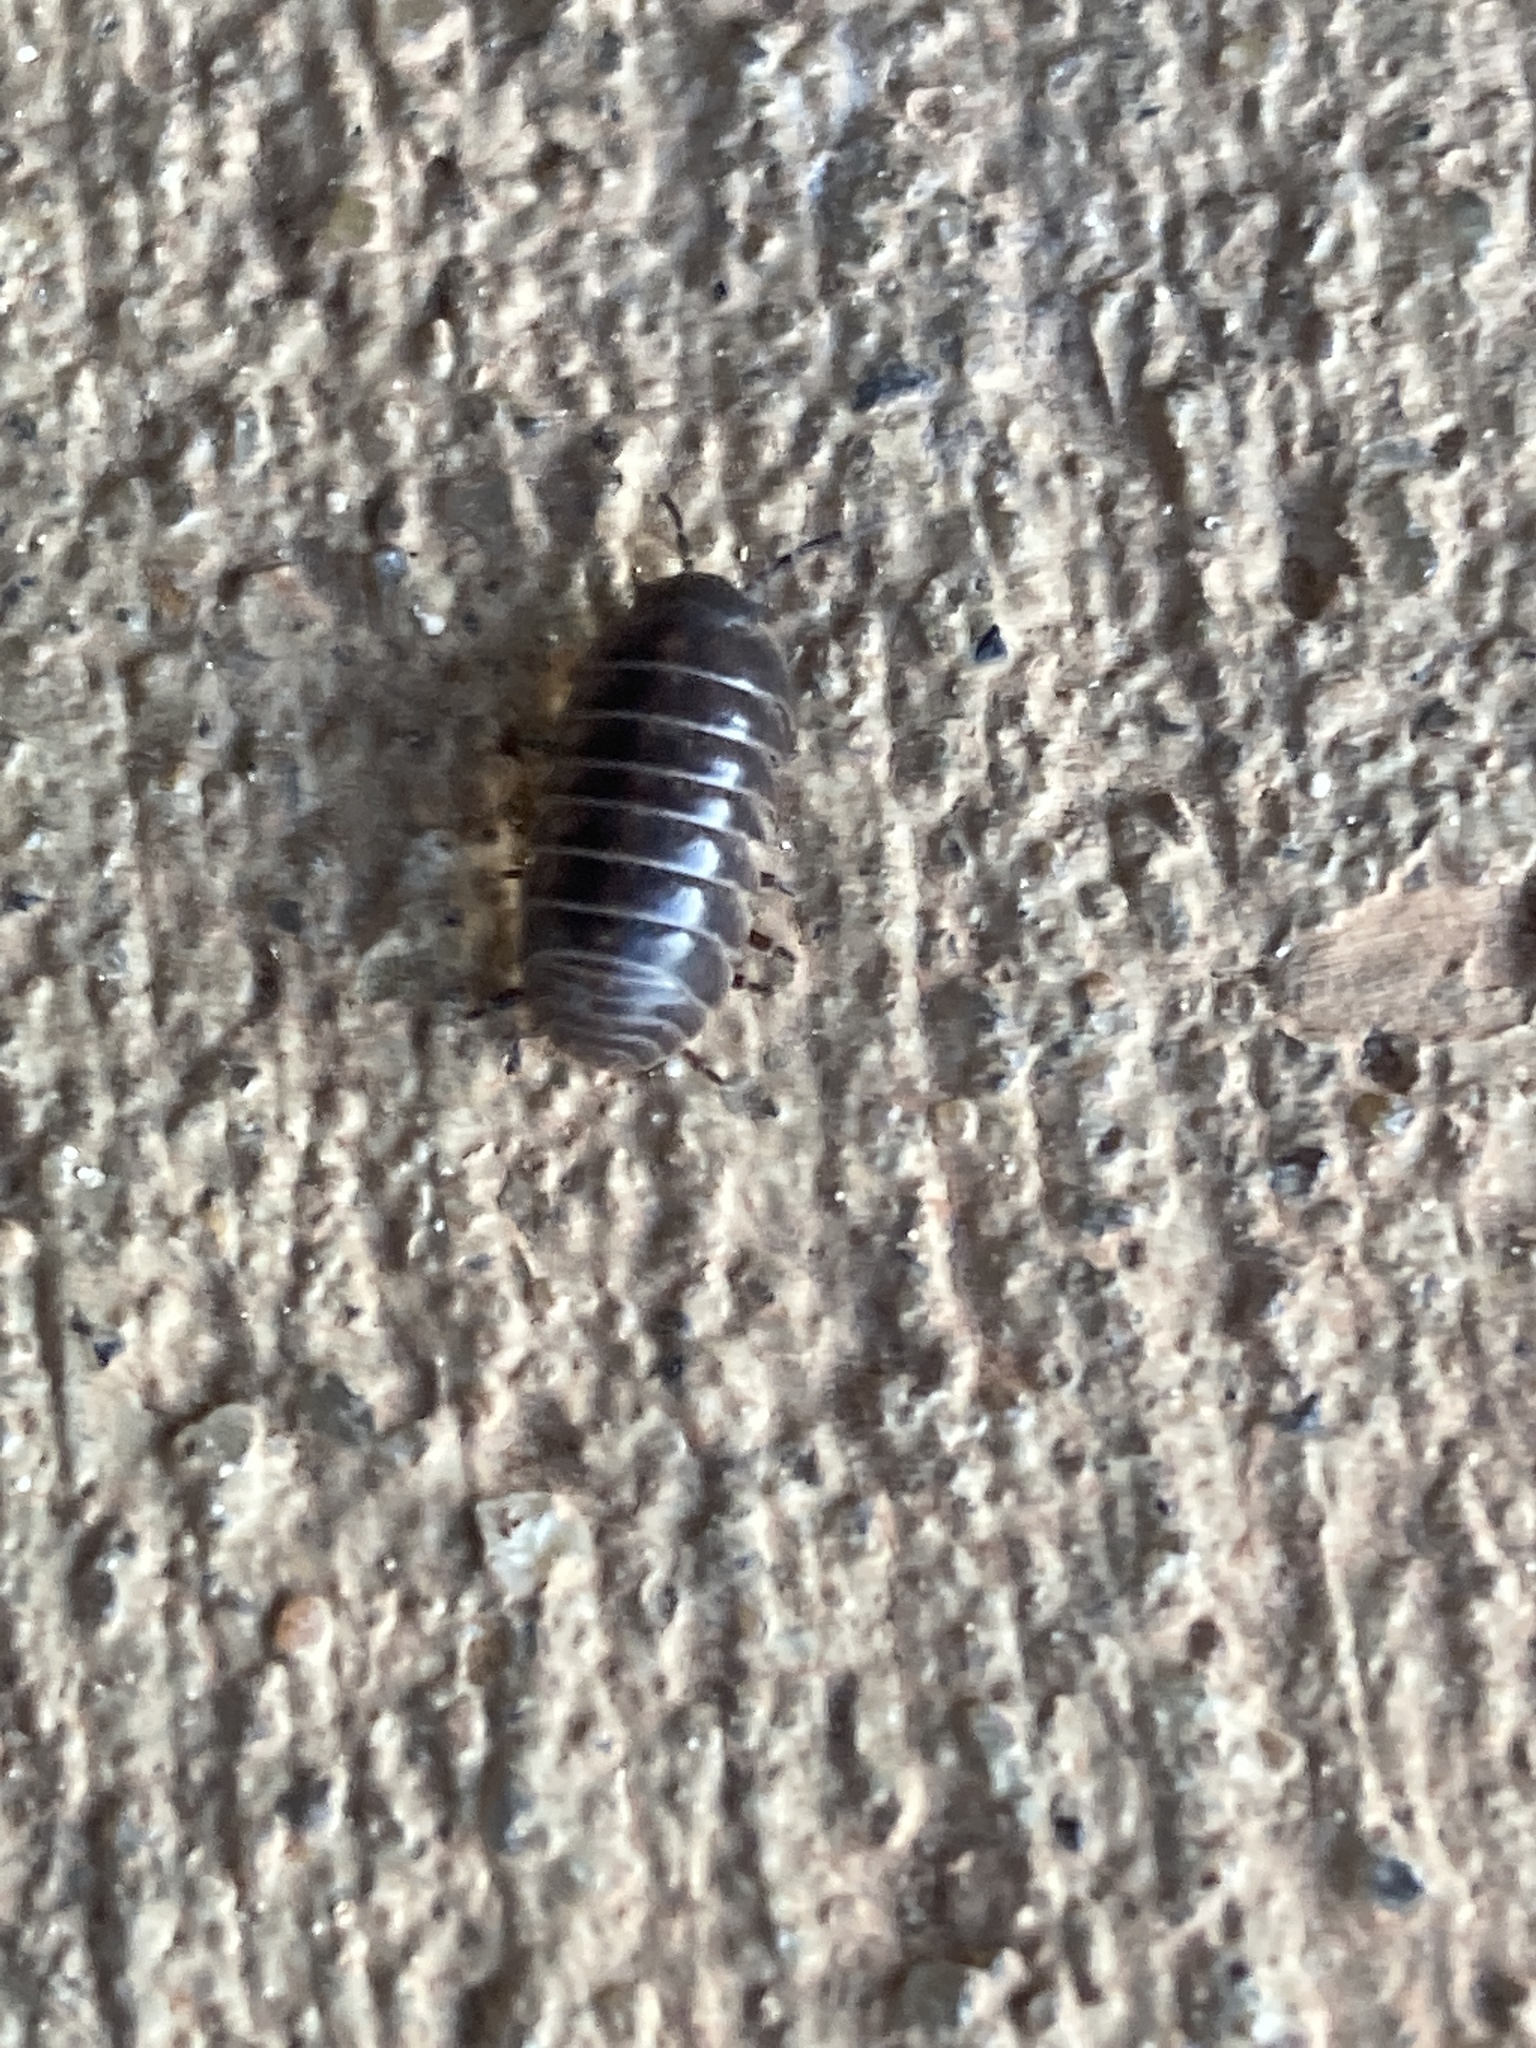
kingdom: Animalia
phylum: Arthropoda
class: Malacostraca
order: Isopoda
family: Armadillidiidae
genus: Armadillidium
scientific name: Armadillidium vulgare
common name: Common pill woodlouse
